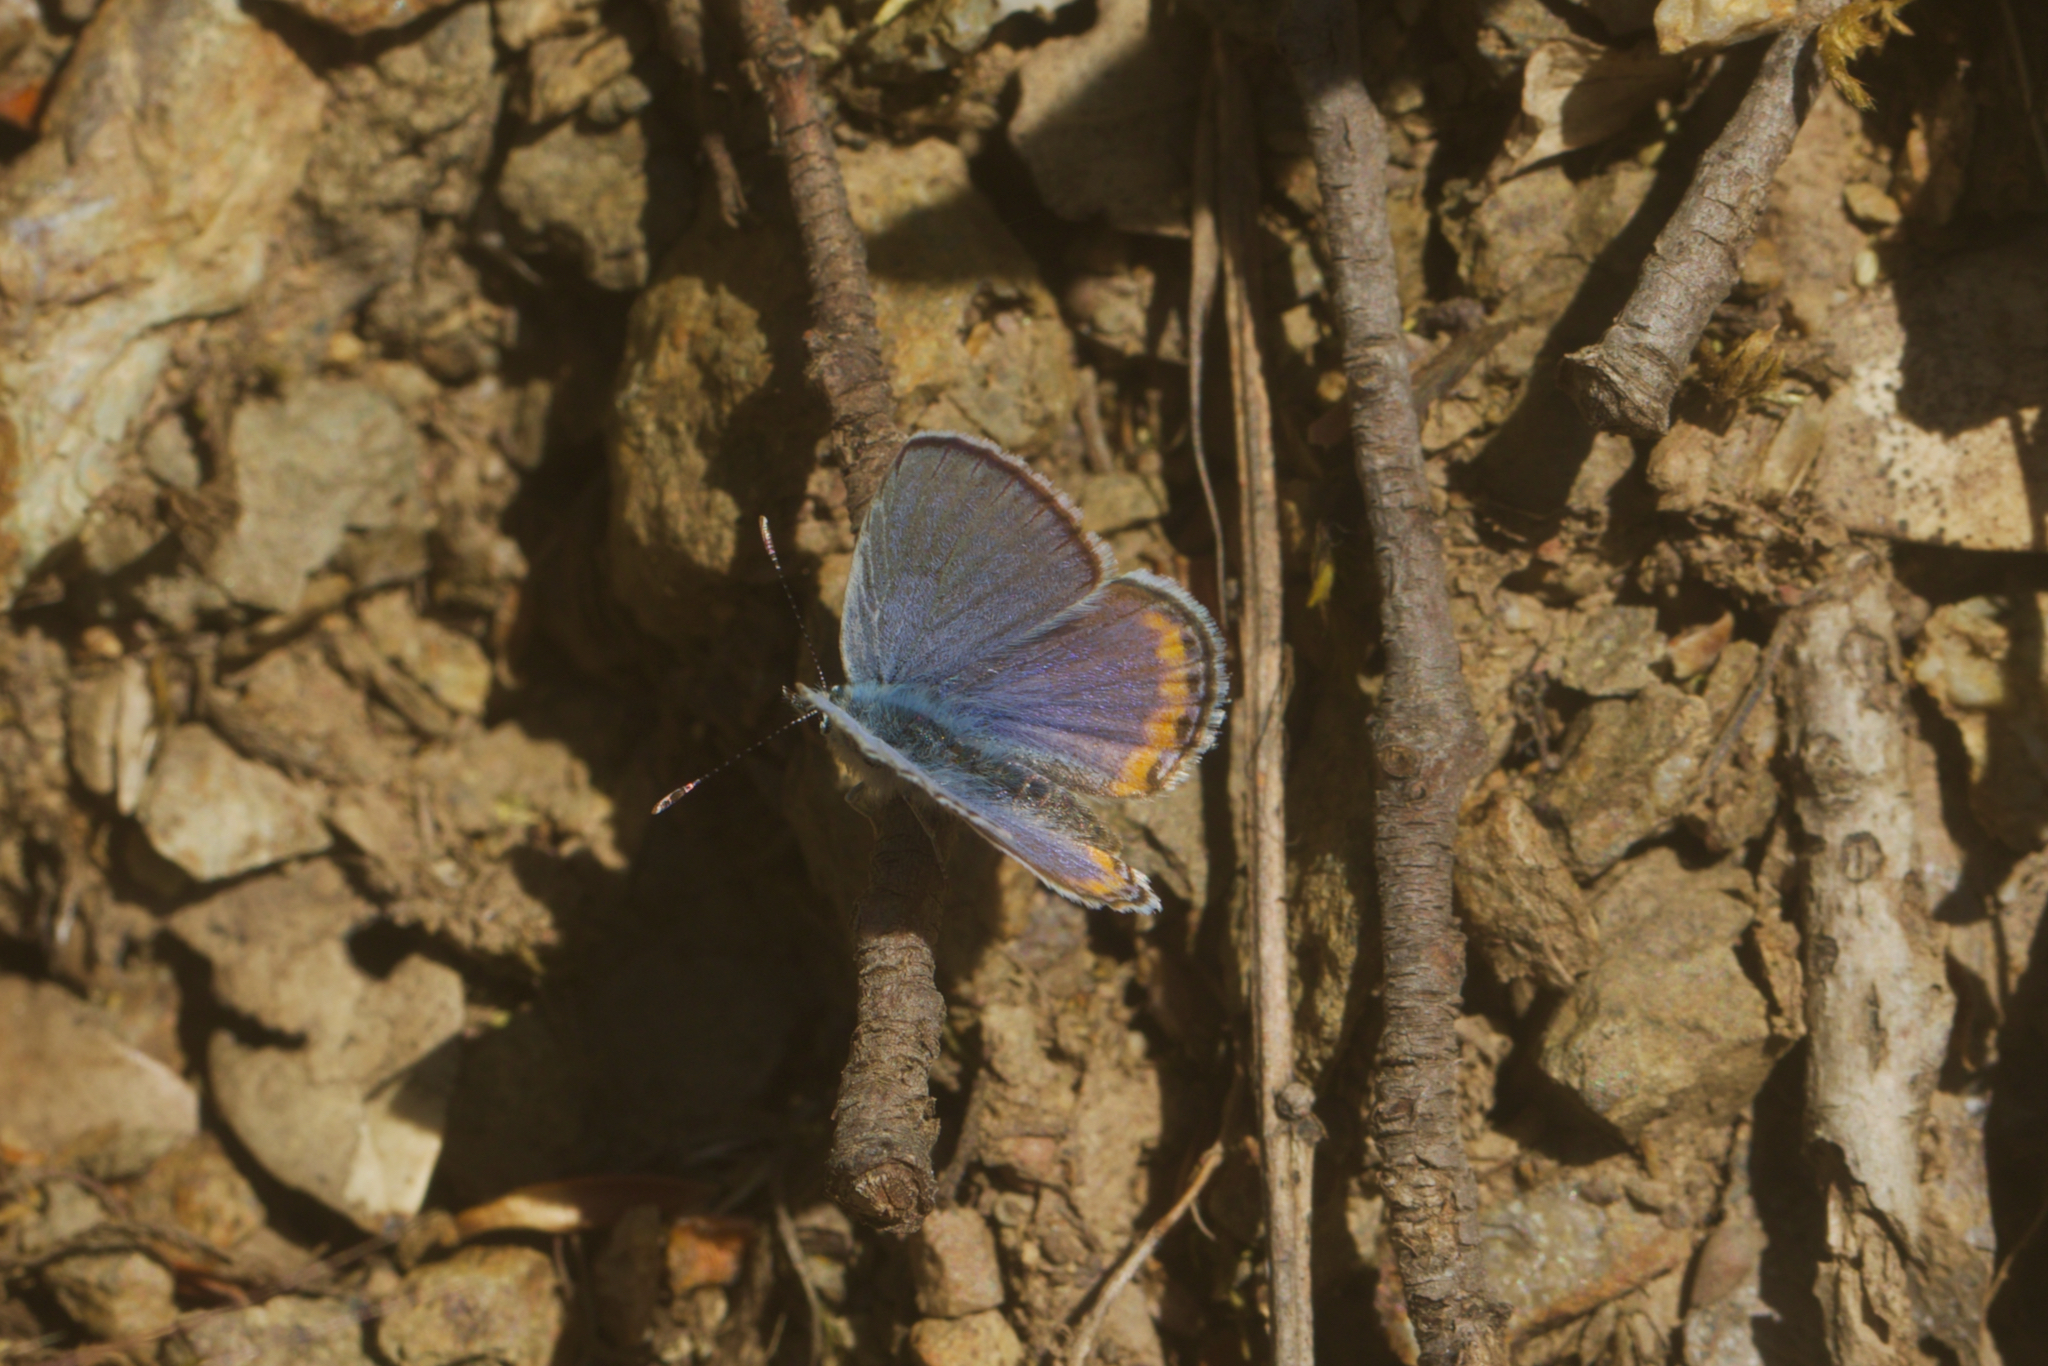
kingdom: Animalia
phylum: Arthropoda
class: Insecta
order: Lepidoptera
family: Lycaenidae
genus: Icaricia
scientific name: Icaricia acmon
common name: Acmon blue
